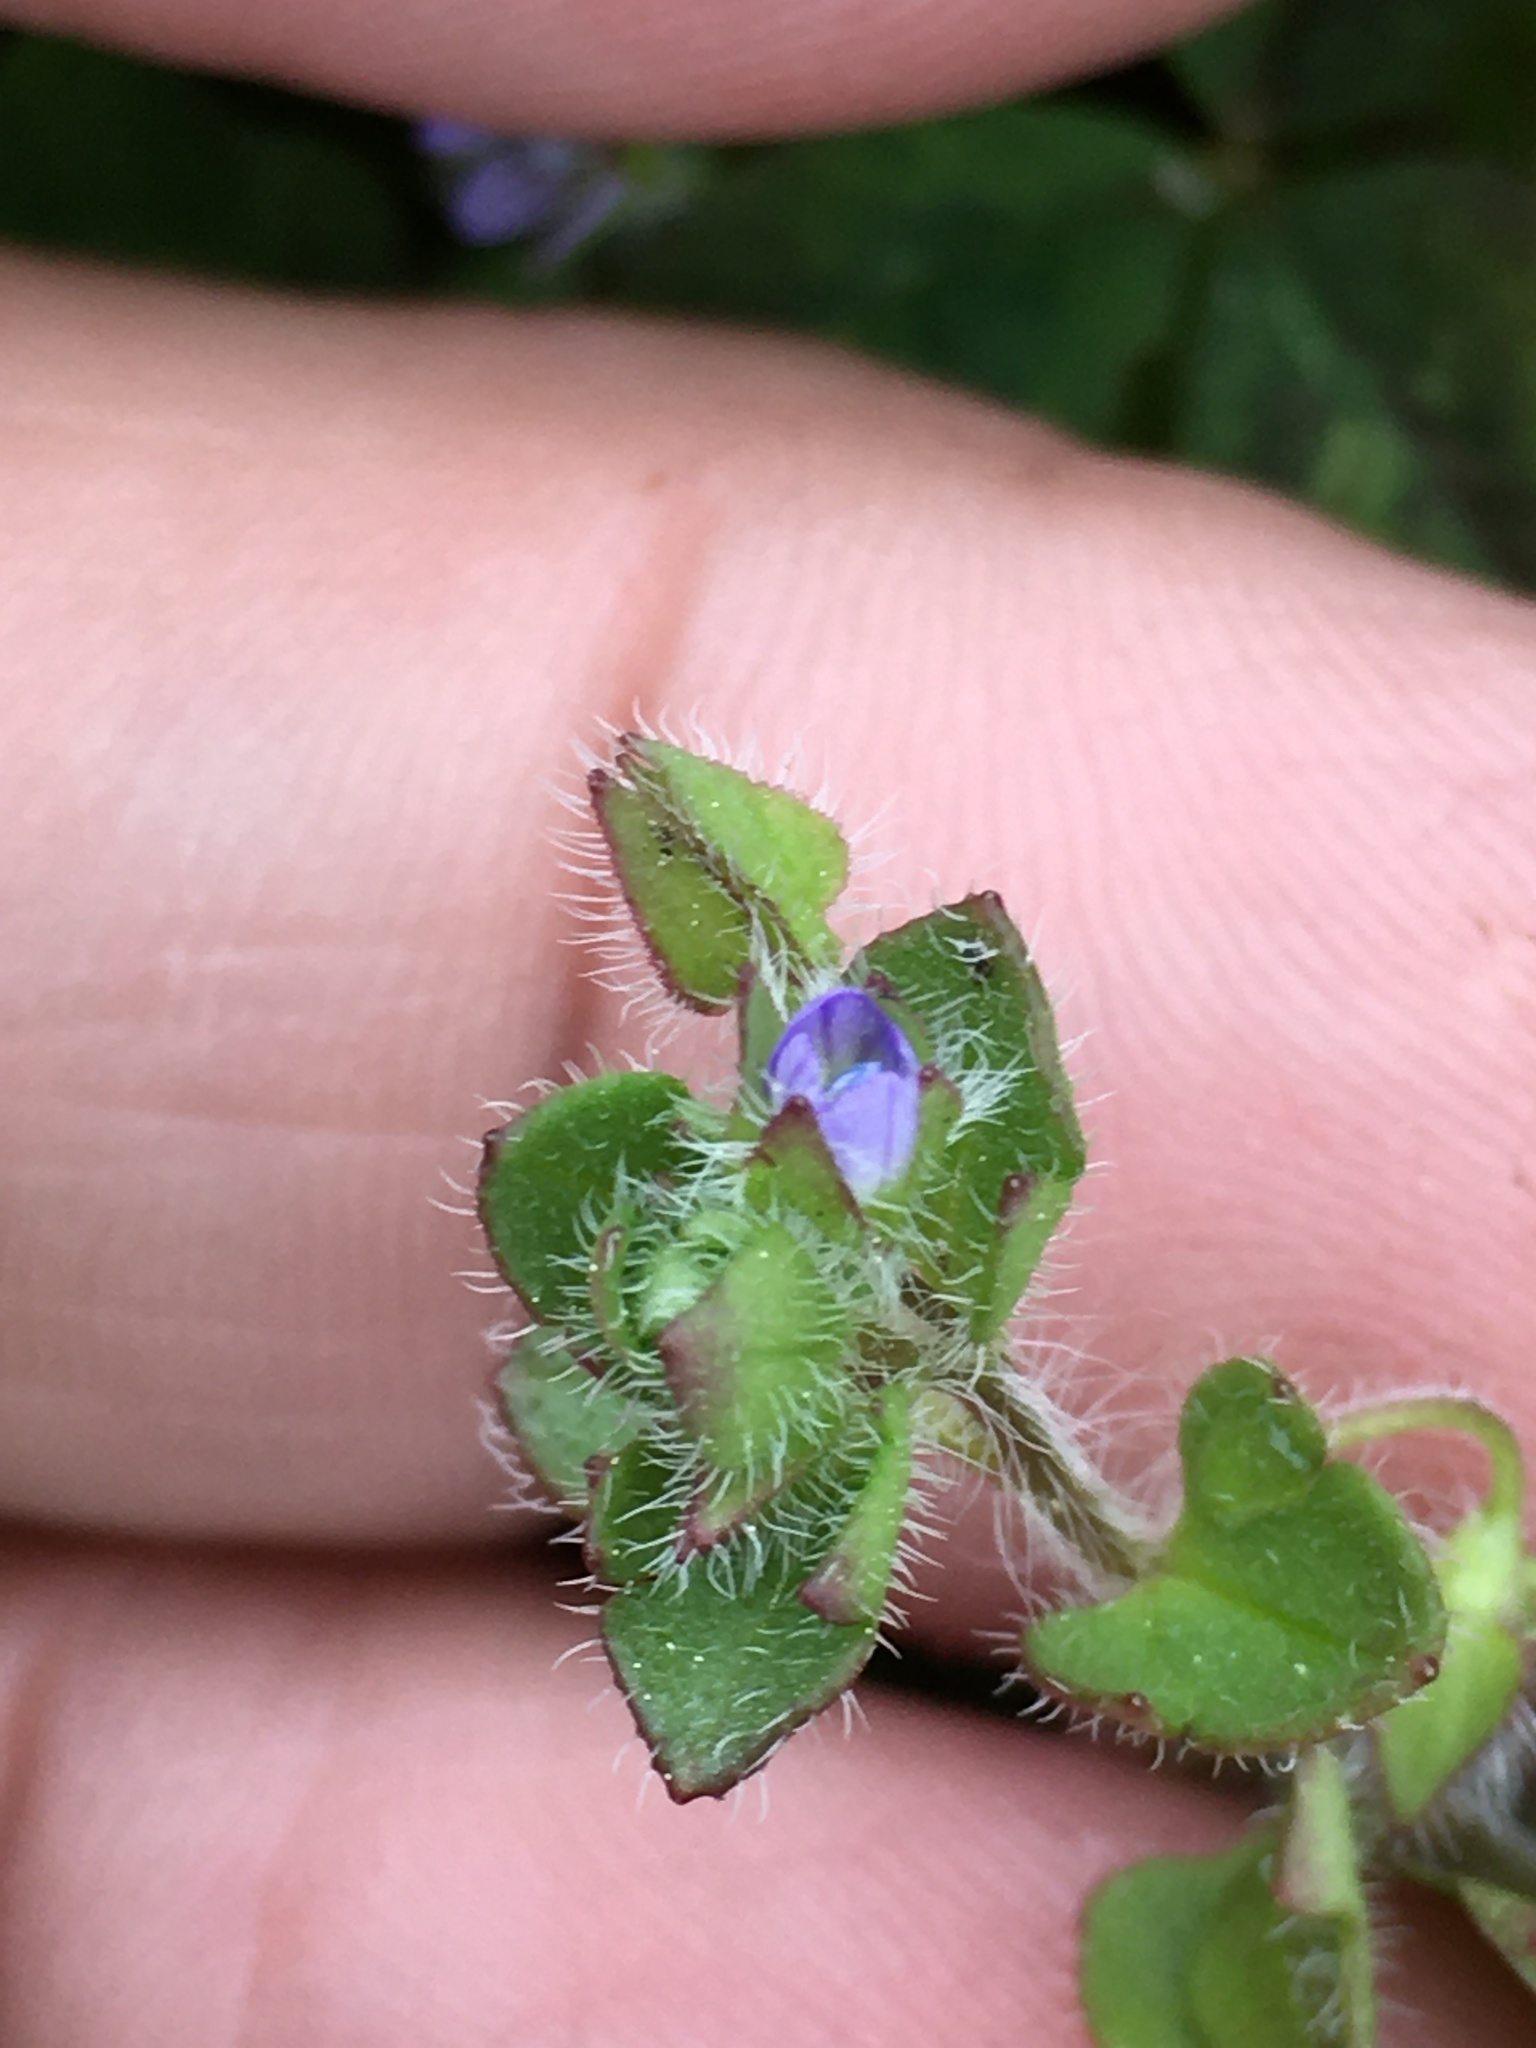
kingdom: Plantae
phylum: Tracheophyta
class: Magnoliopsida
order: Lamiales
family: Plantaginaceae
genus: Veronica
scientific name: Veronica hederifolia
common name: Ivy-leaved speedwell
